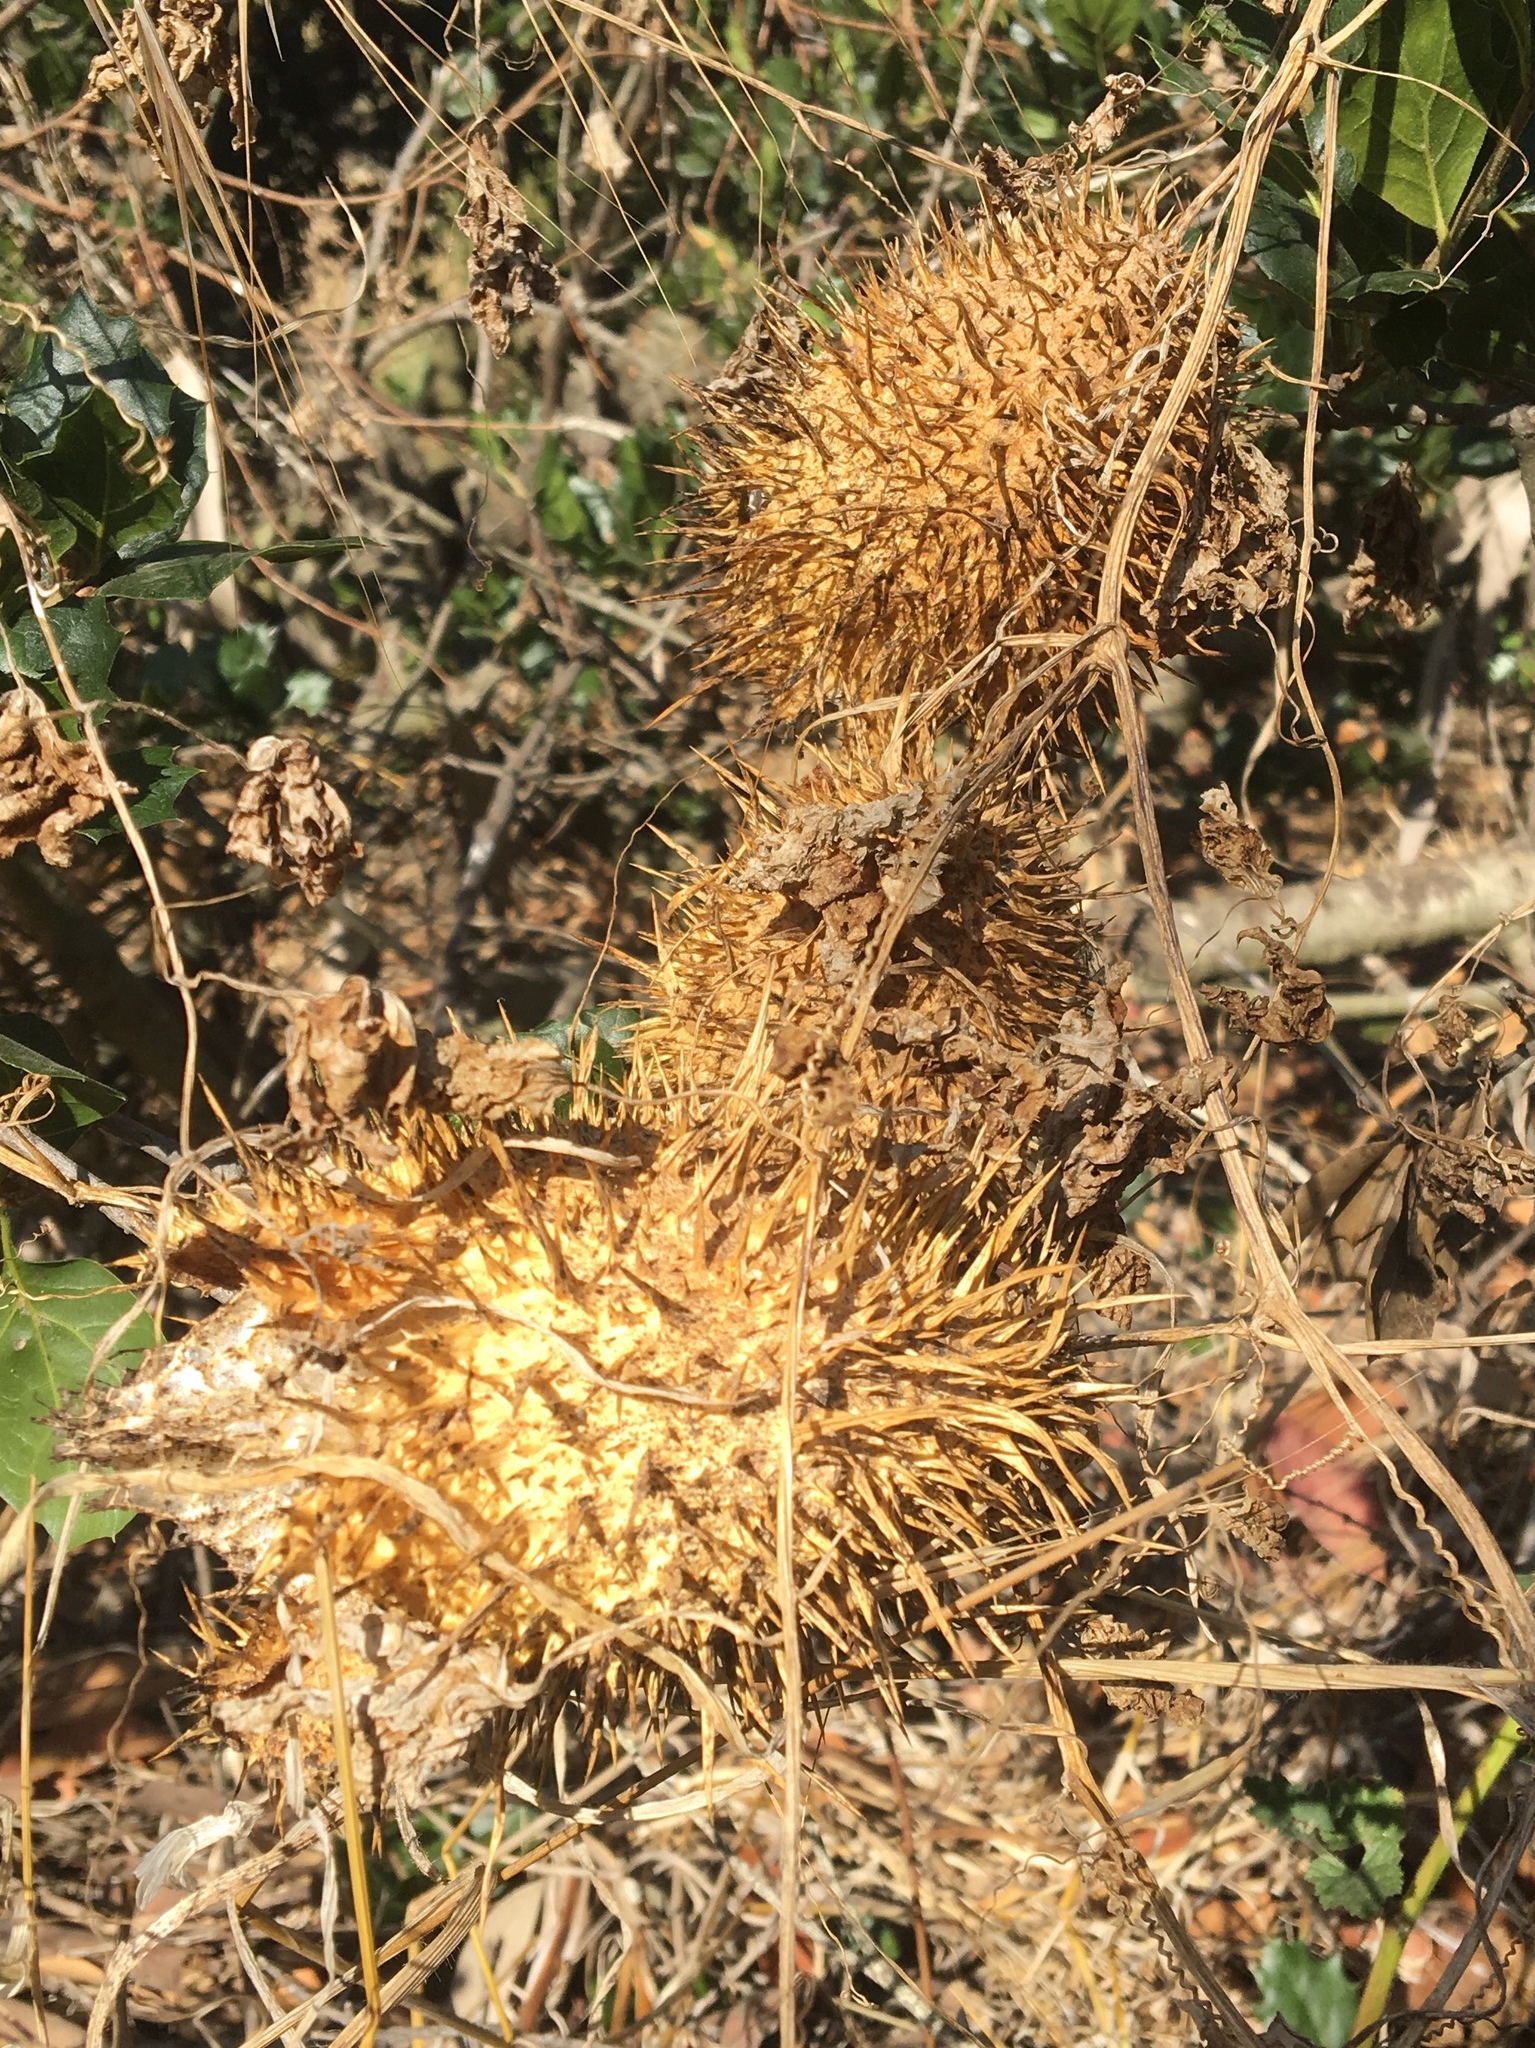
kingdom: Plantae
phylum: Tracheophyta
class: Magnoliopsida
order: Cucurbitales
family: Cucurbitaceae
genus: Marah
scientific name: Marah macrocarpa
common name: Cucamonga manroot
